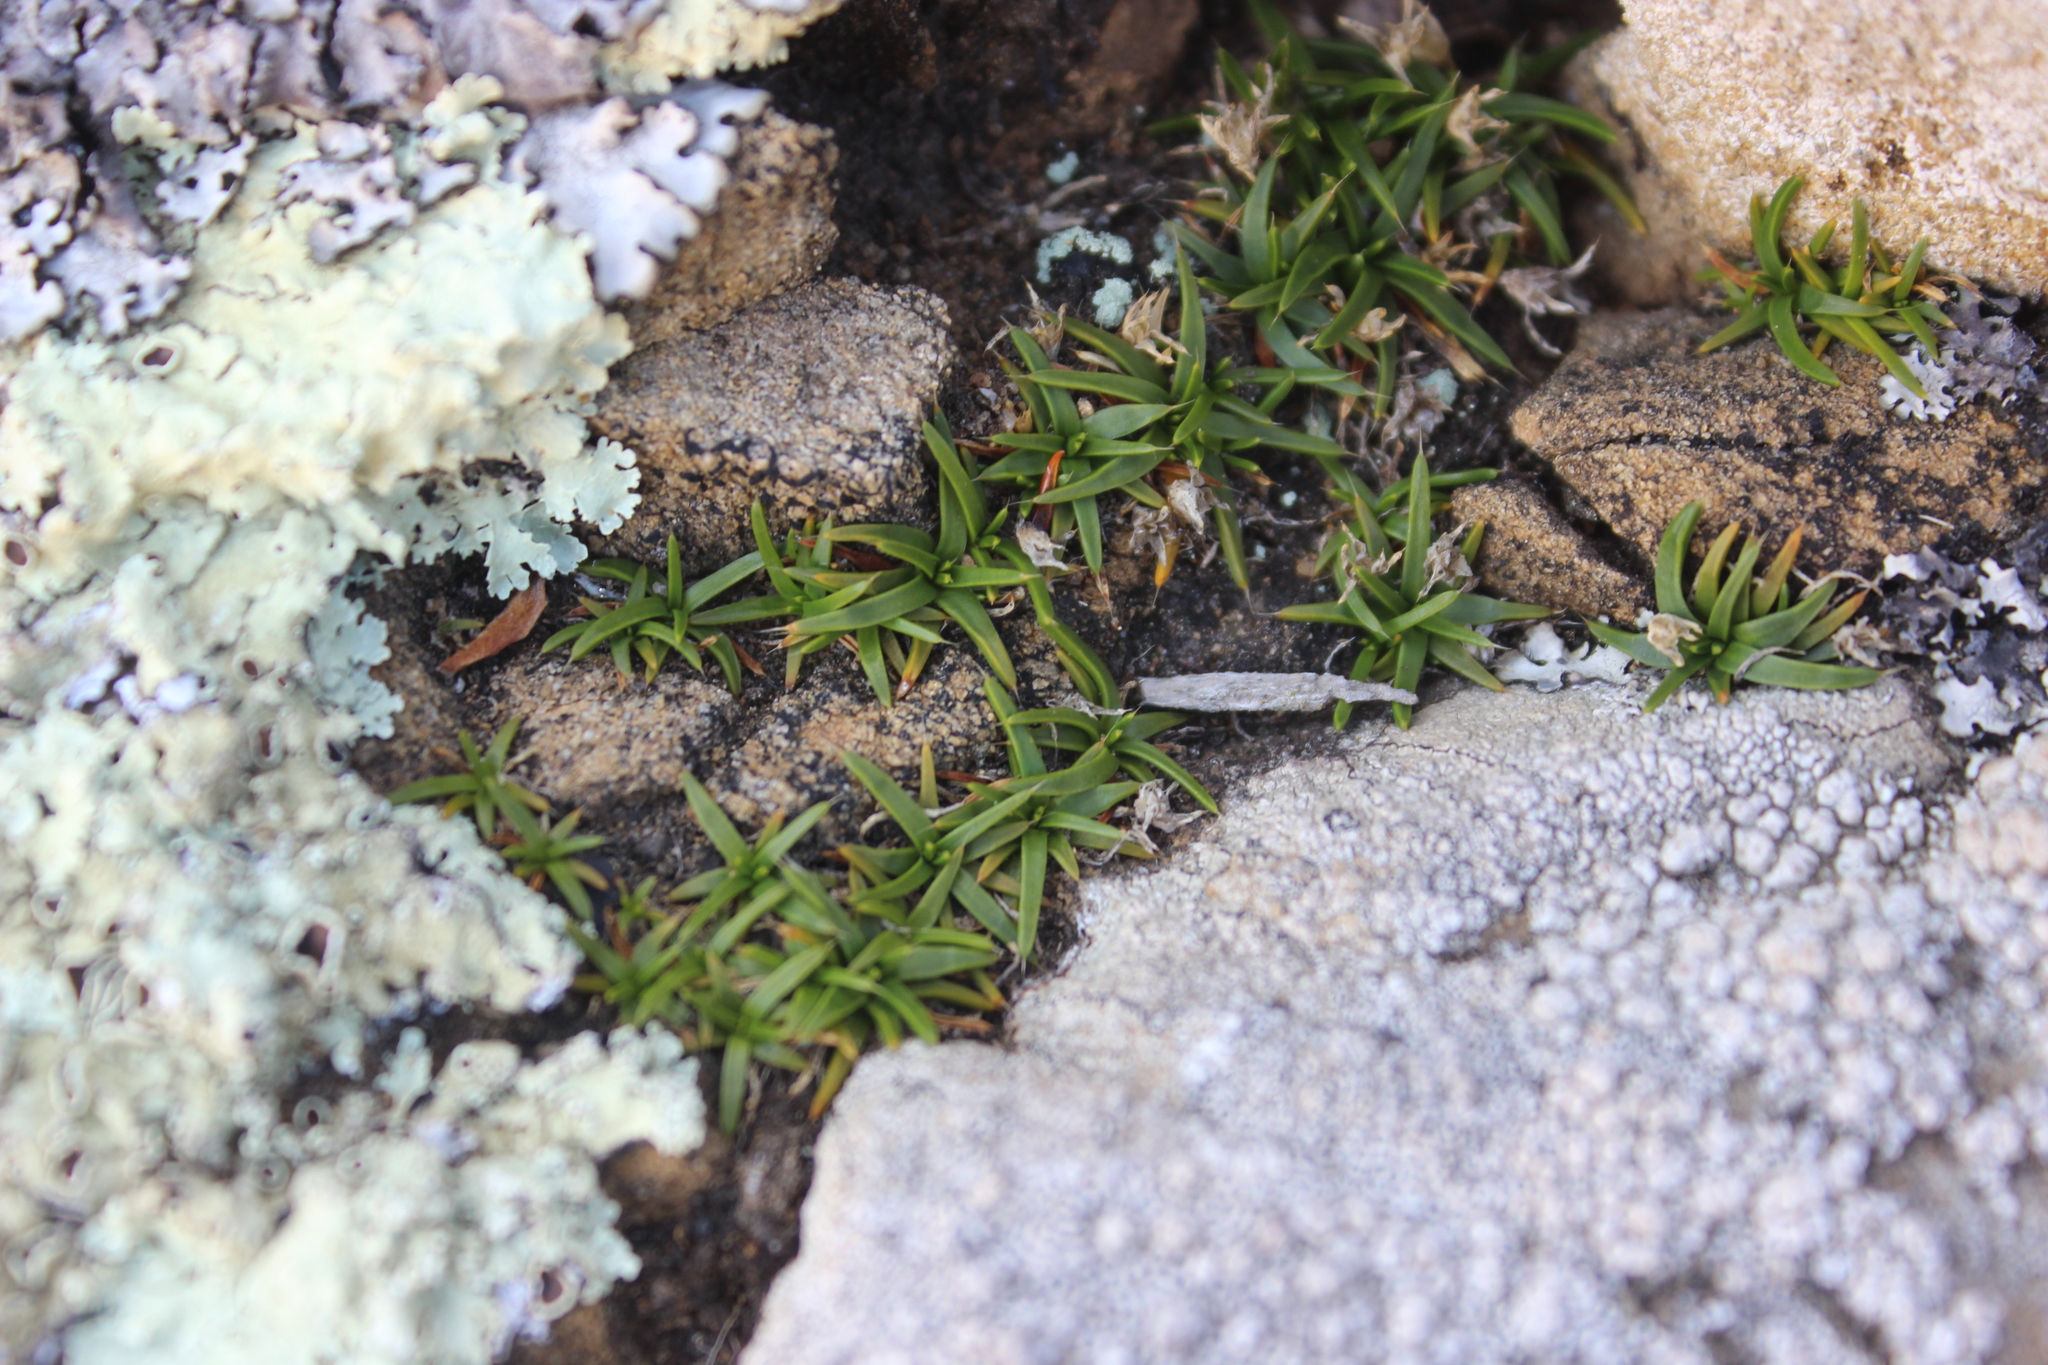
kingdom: Plantae
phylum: Tracheophyta
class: Magnoliopsida
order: Caryophyllales
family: Caryophyllaceae
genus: Colobanthus
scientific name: Colobanthus muelleri
